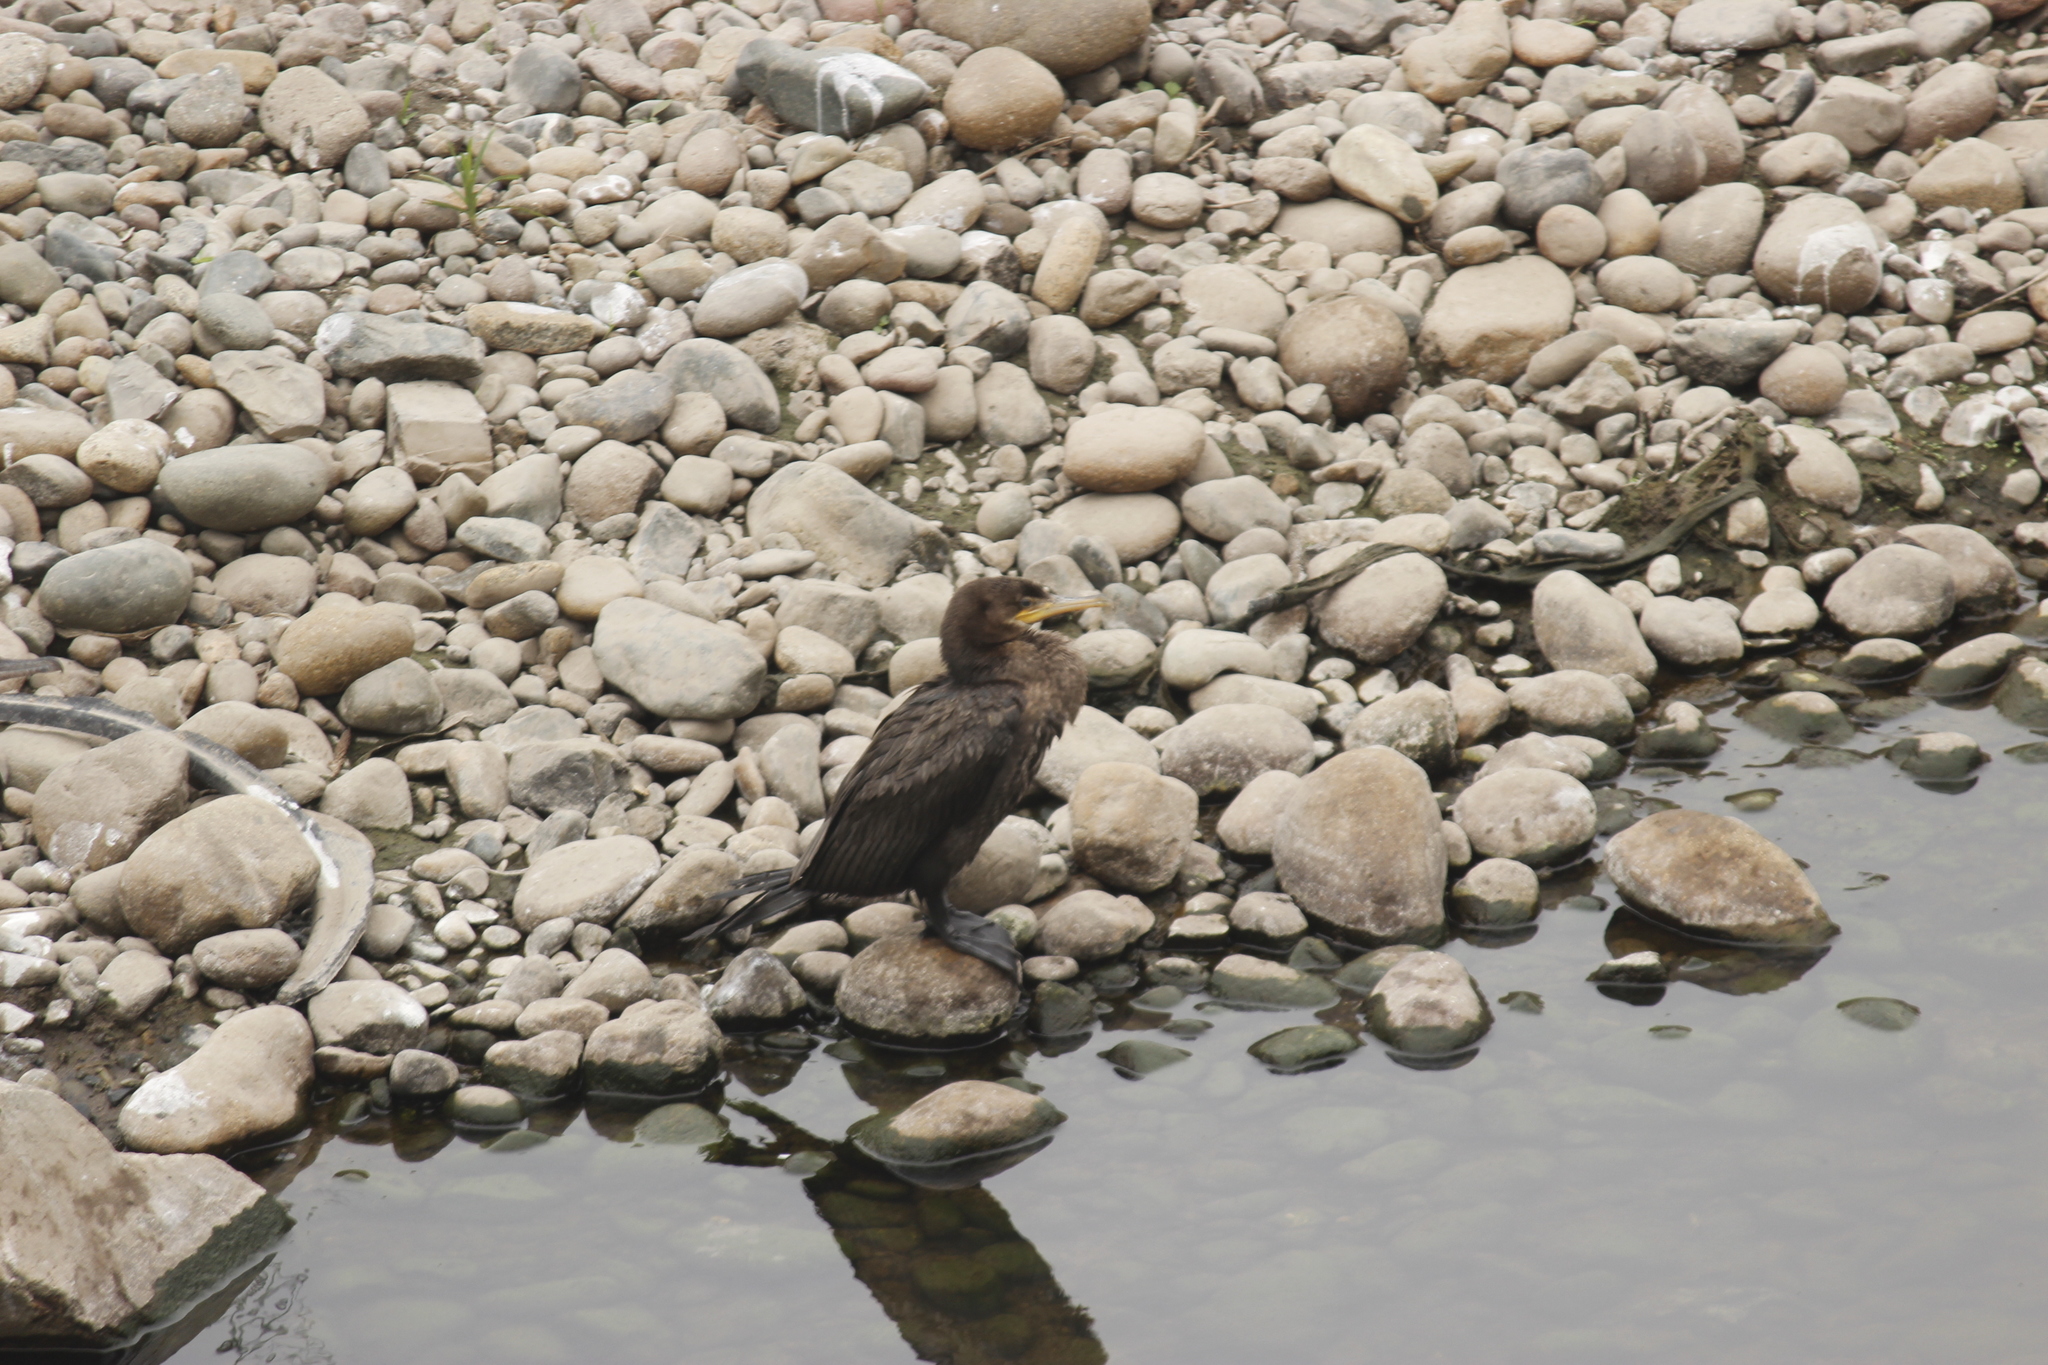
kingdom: Animalia
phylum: Chordata
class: Aves
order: Suliformes
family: Phalacrocoracidae
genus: Phalacrocorax
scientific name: Phalacrocorax brasilianus
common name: Neotropic cormorant
